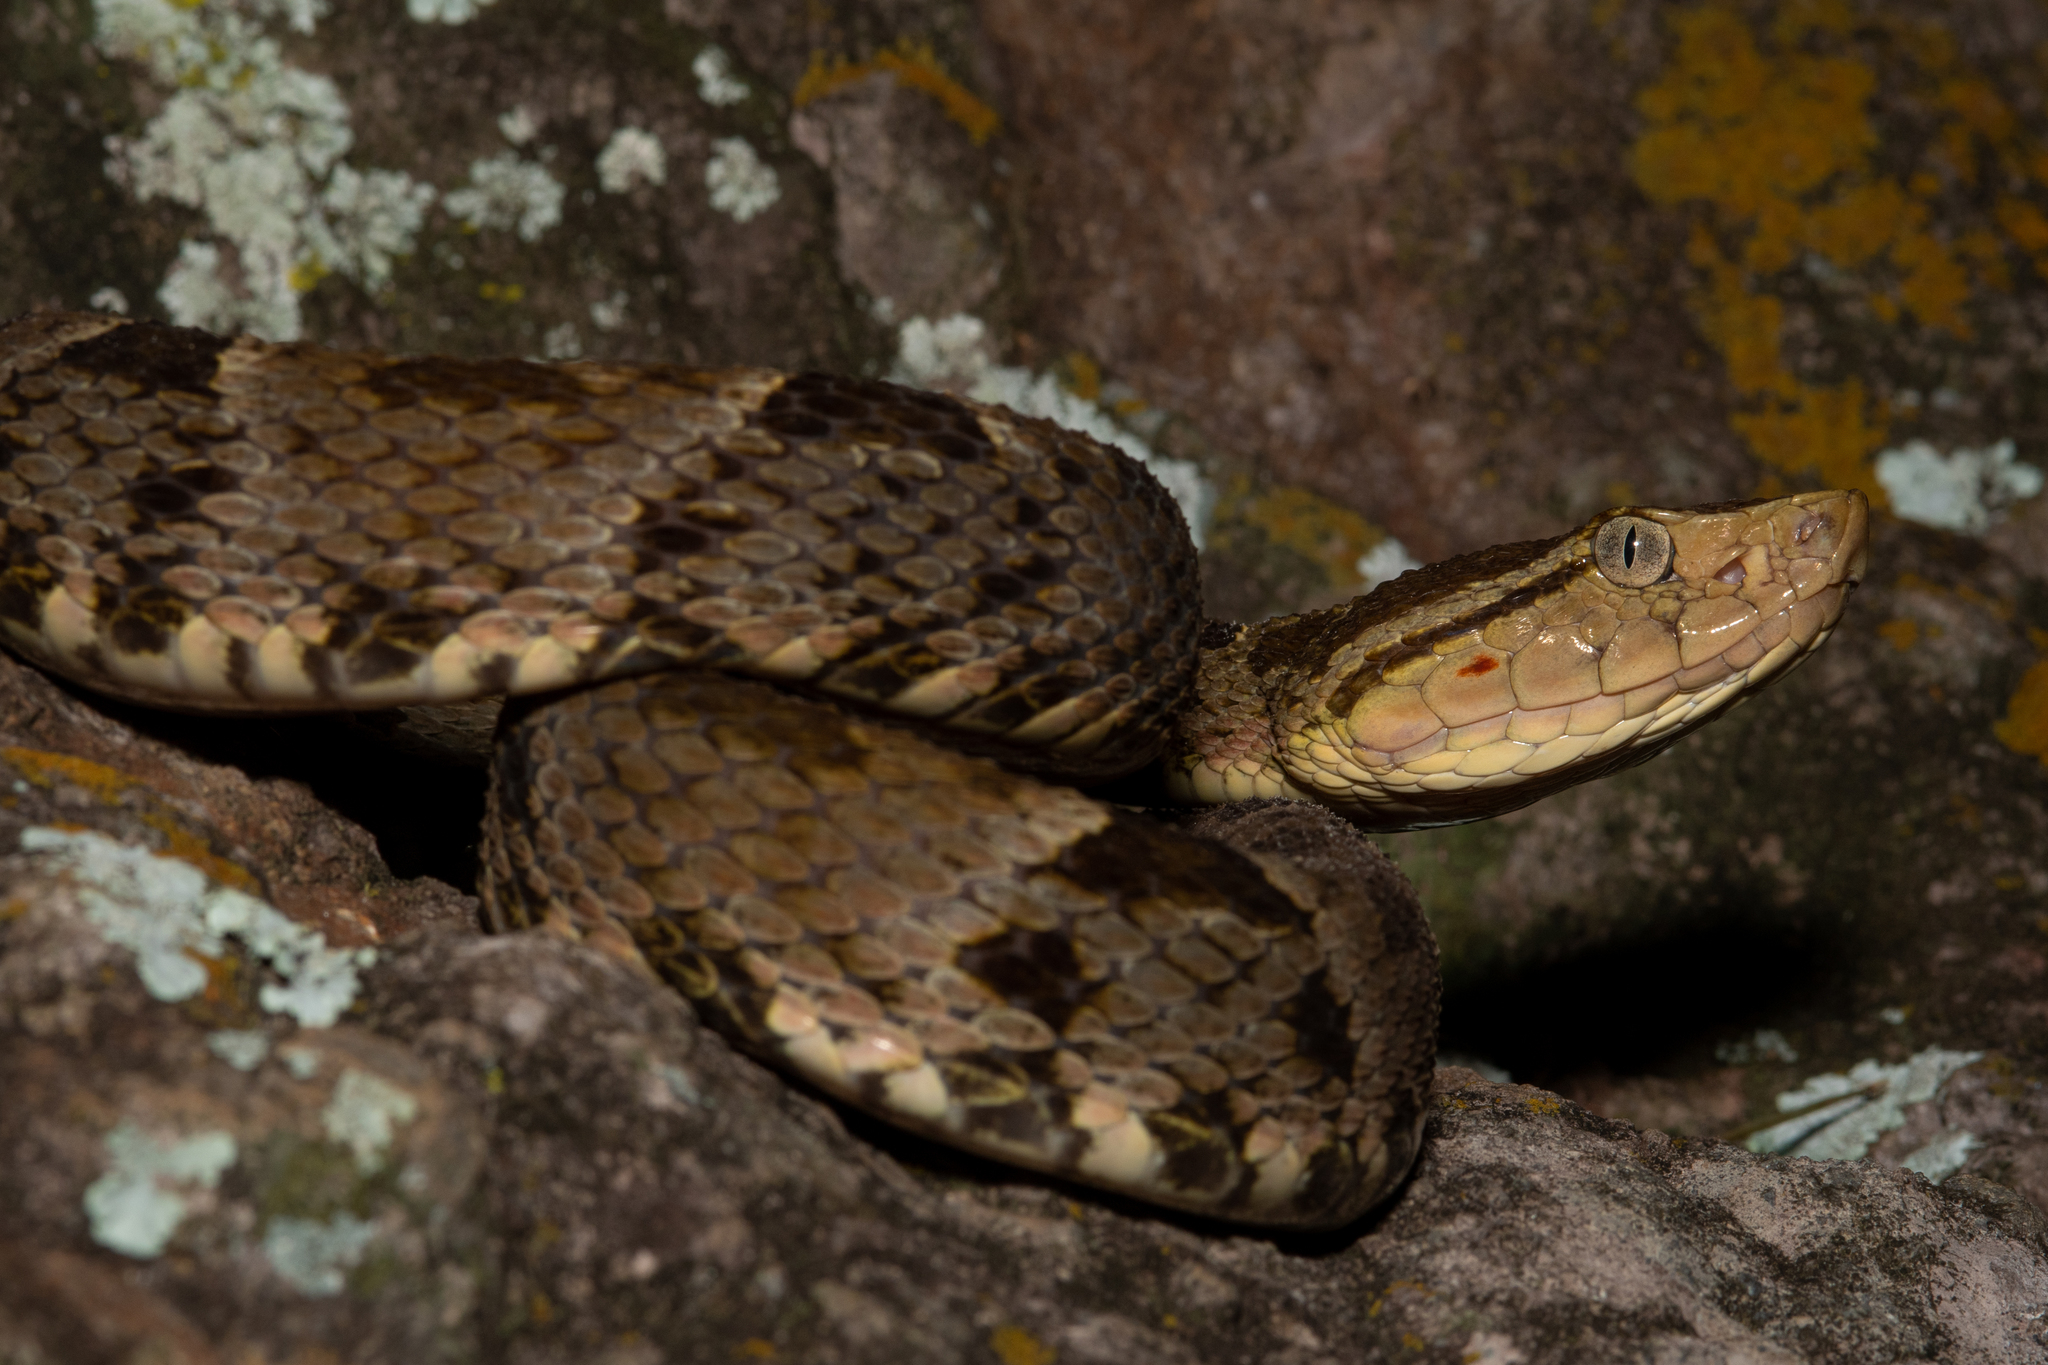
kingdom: Animalia
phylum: Chordata
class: Squamata
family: Viperidae
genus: Bothrops
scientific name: Bothrops asper
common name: Terciopelo
